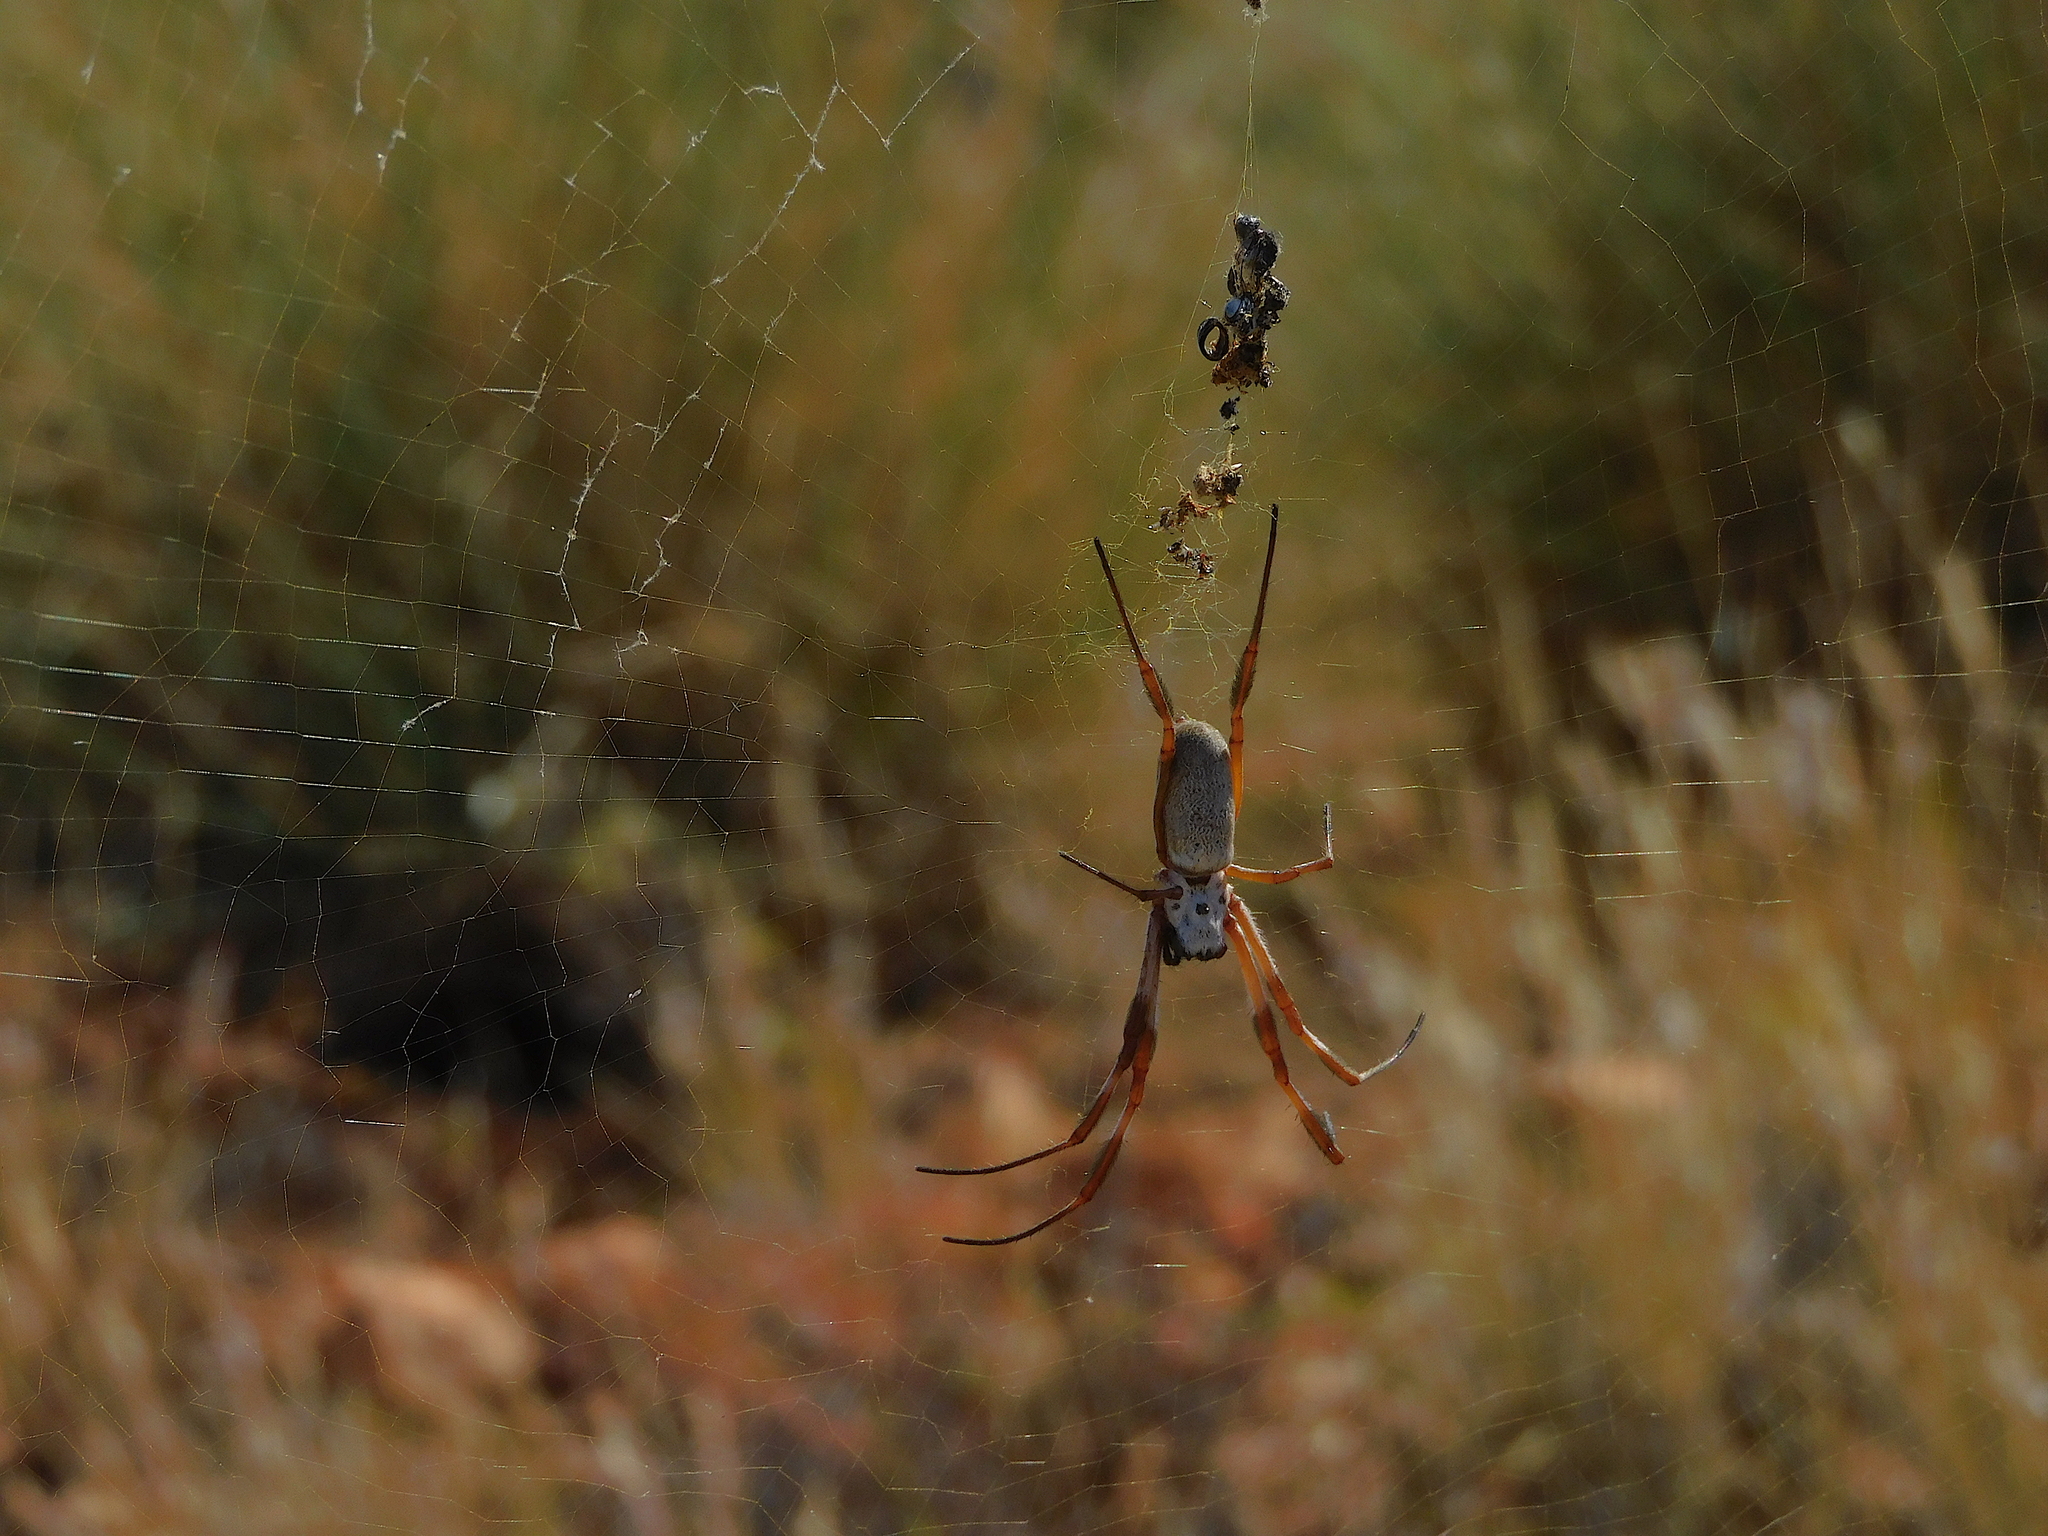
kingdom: Animalia
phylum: Arthropoda
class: Arachnida
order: Araneae
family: Araneidae
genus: Trichonephila
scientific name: Trichonephila edulis
